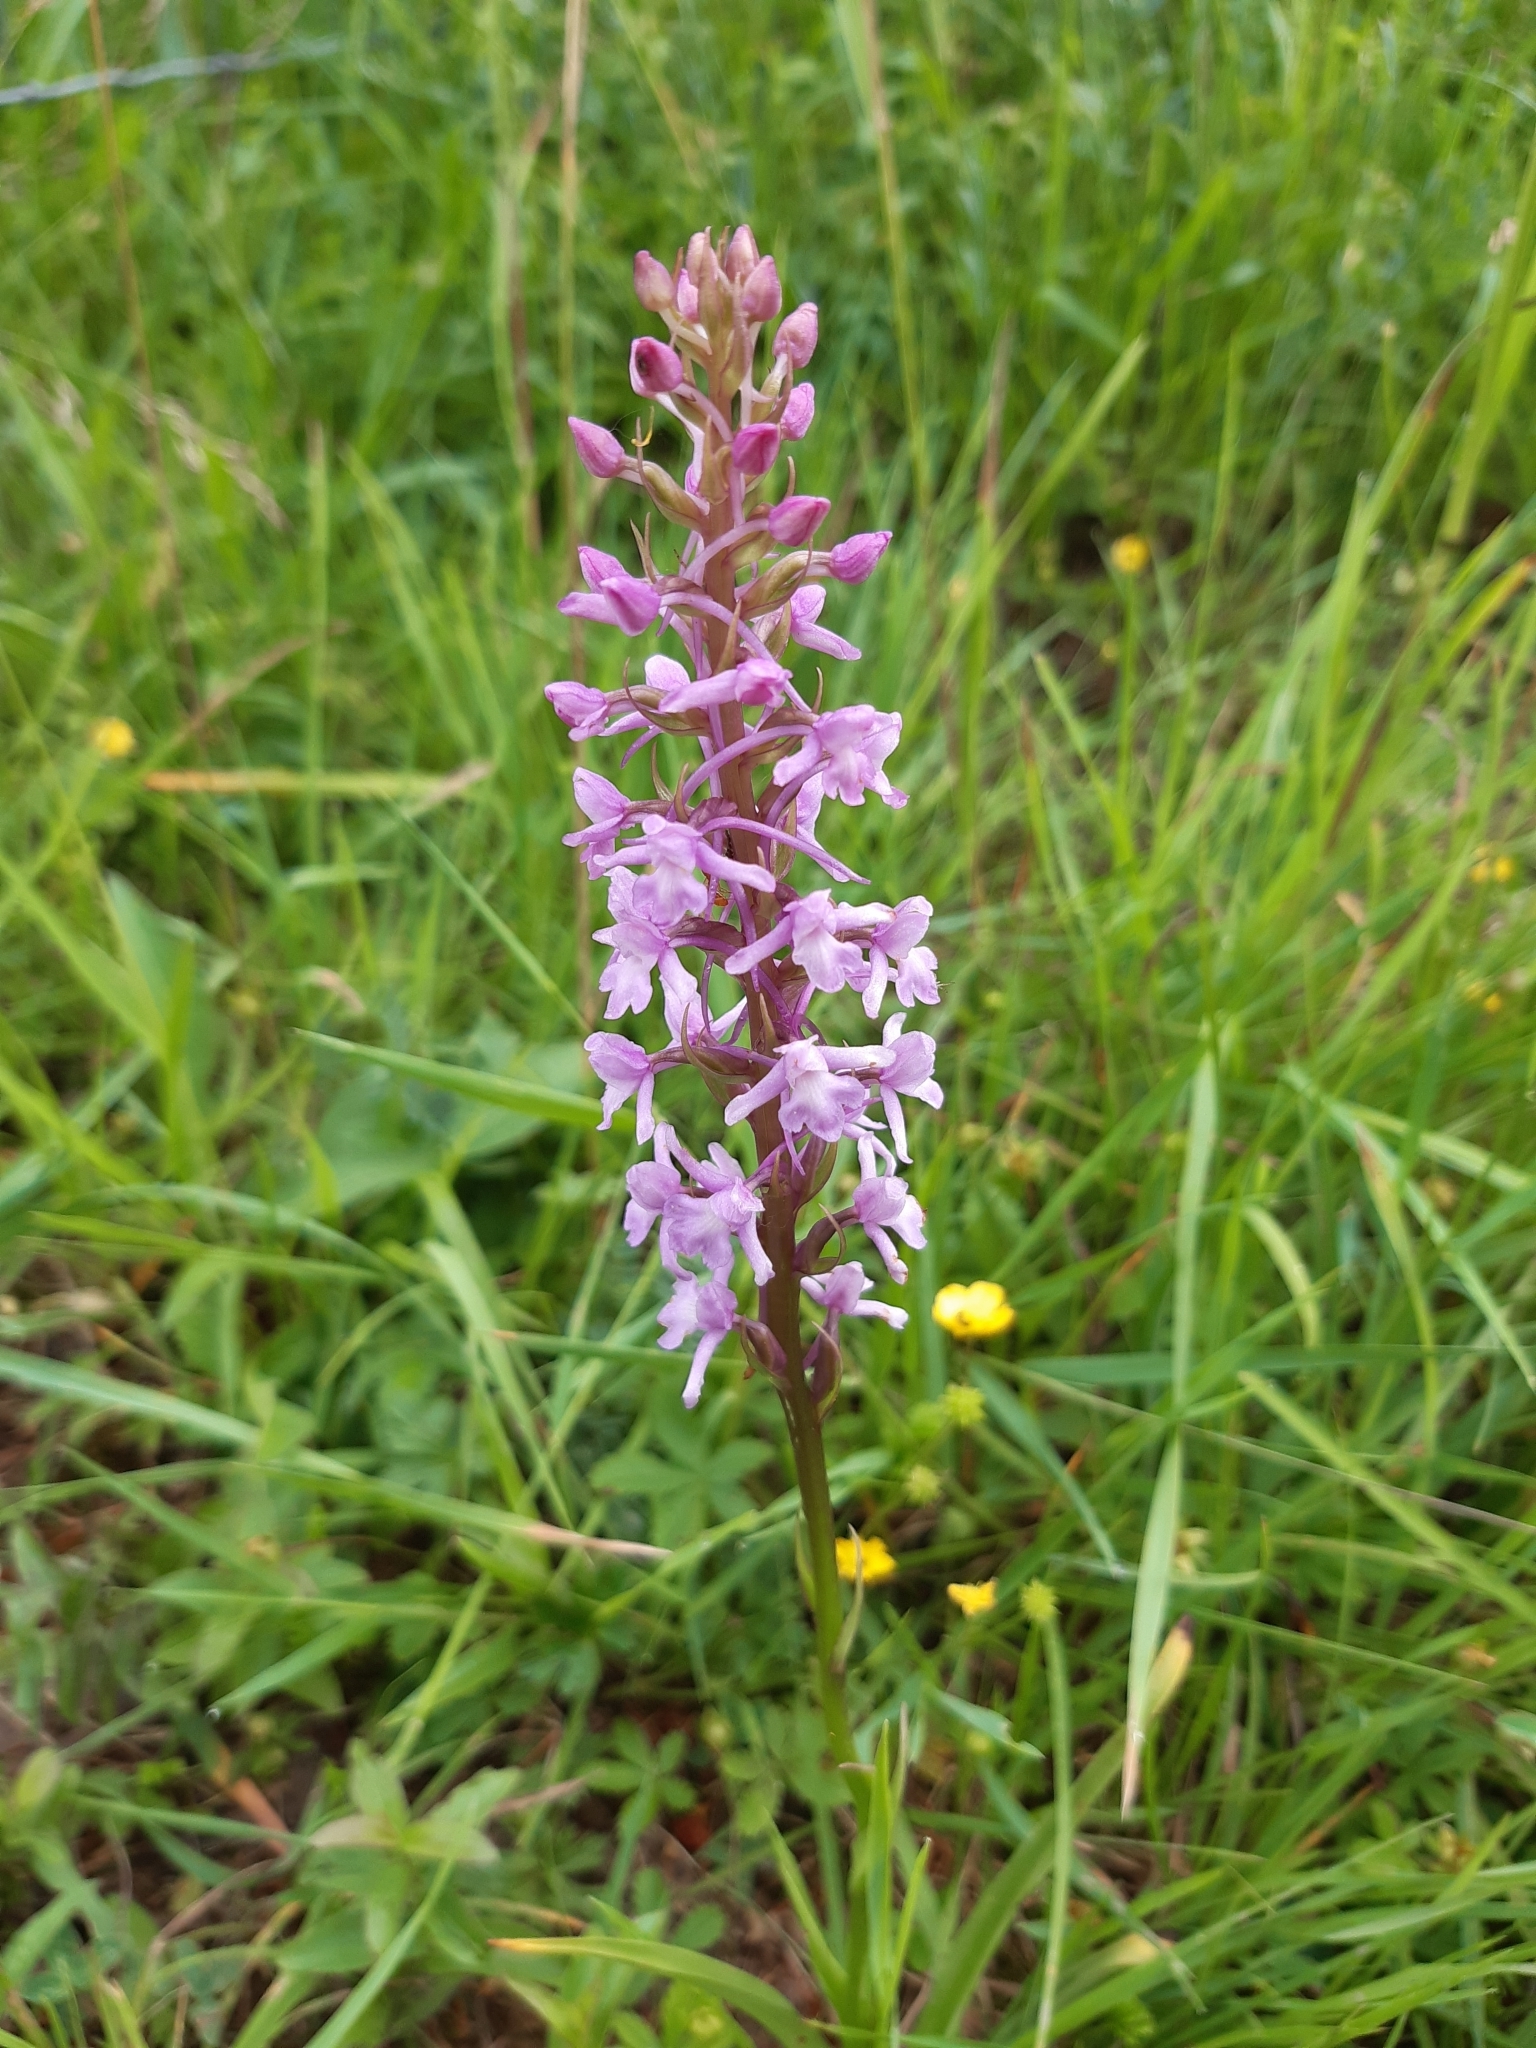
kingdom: Plantae
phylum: Tracheophyta
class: Liliopsida
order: Asparagales
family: Orchidaceae
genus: Gymnadenia
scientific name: Gymnadenia conopsea
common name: Fragrant orchid
